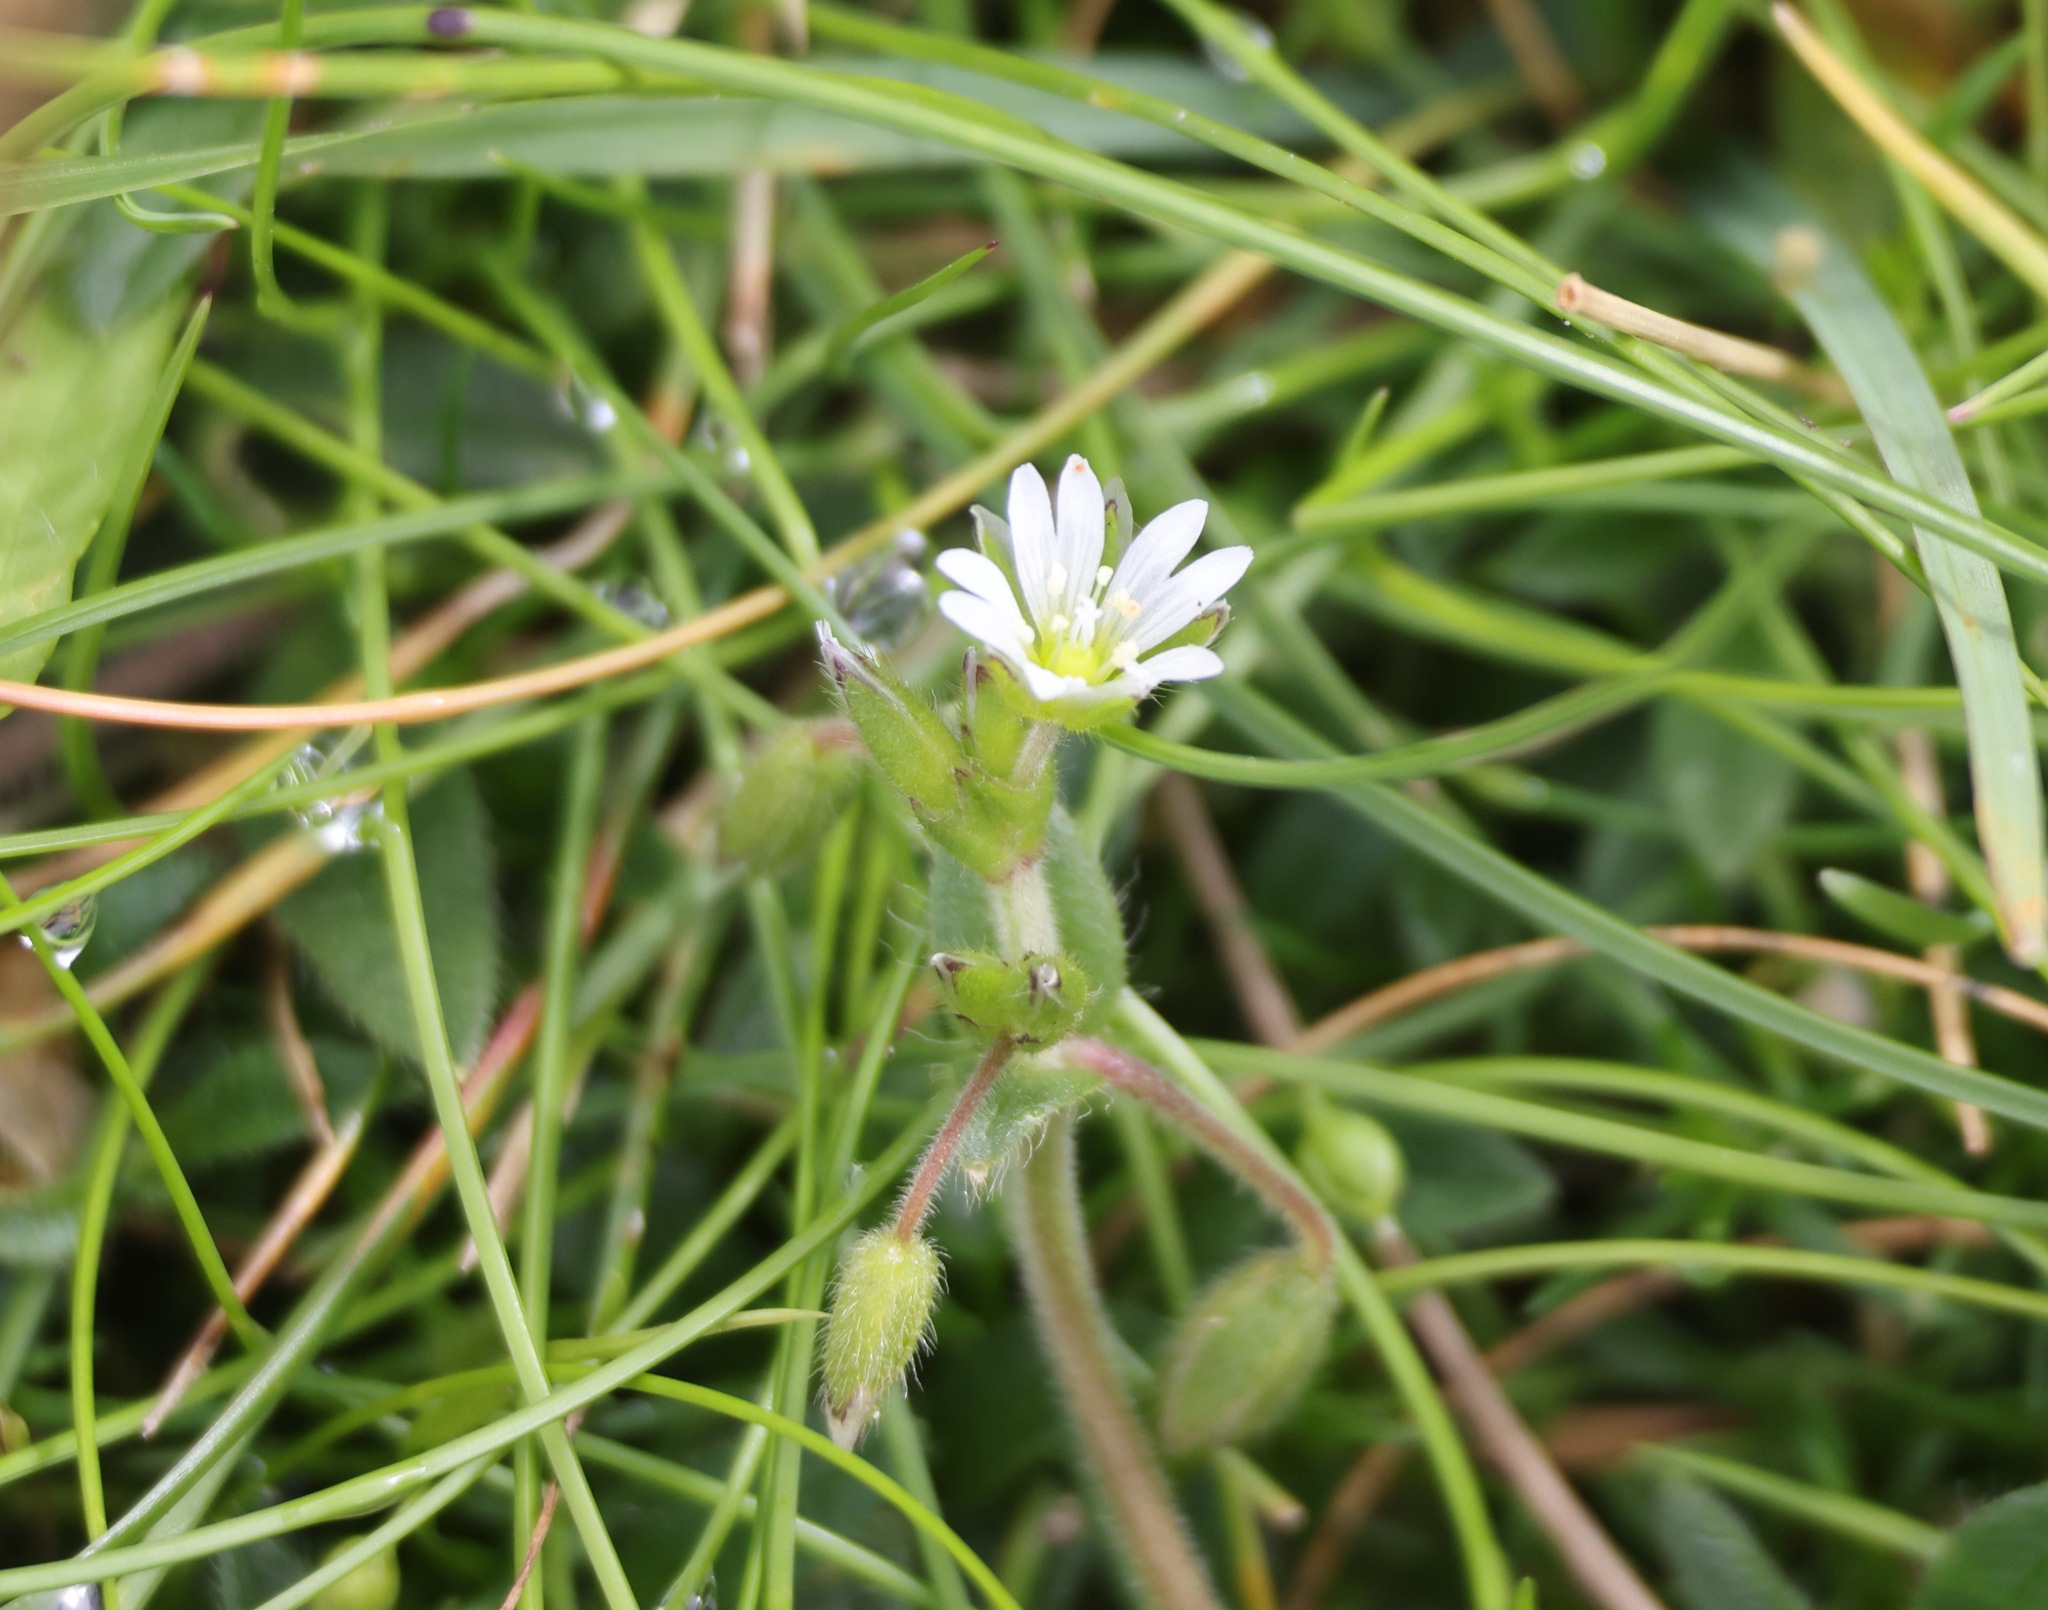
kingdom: Plantae
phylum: Tracheophyta
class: Magnoliopsida
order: Caryophyllales
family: Caryophyllaceae
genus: Cerastium
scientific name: Cerastium fontanum
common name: Common mouse-ear
